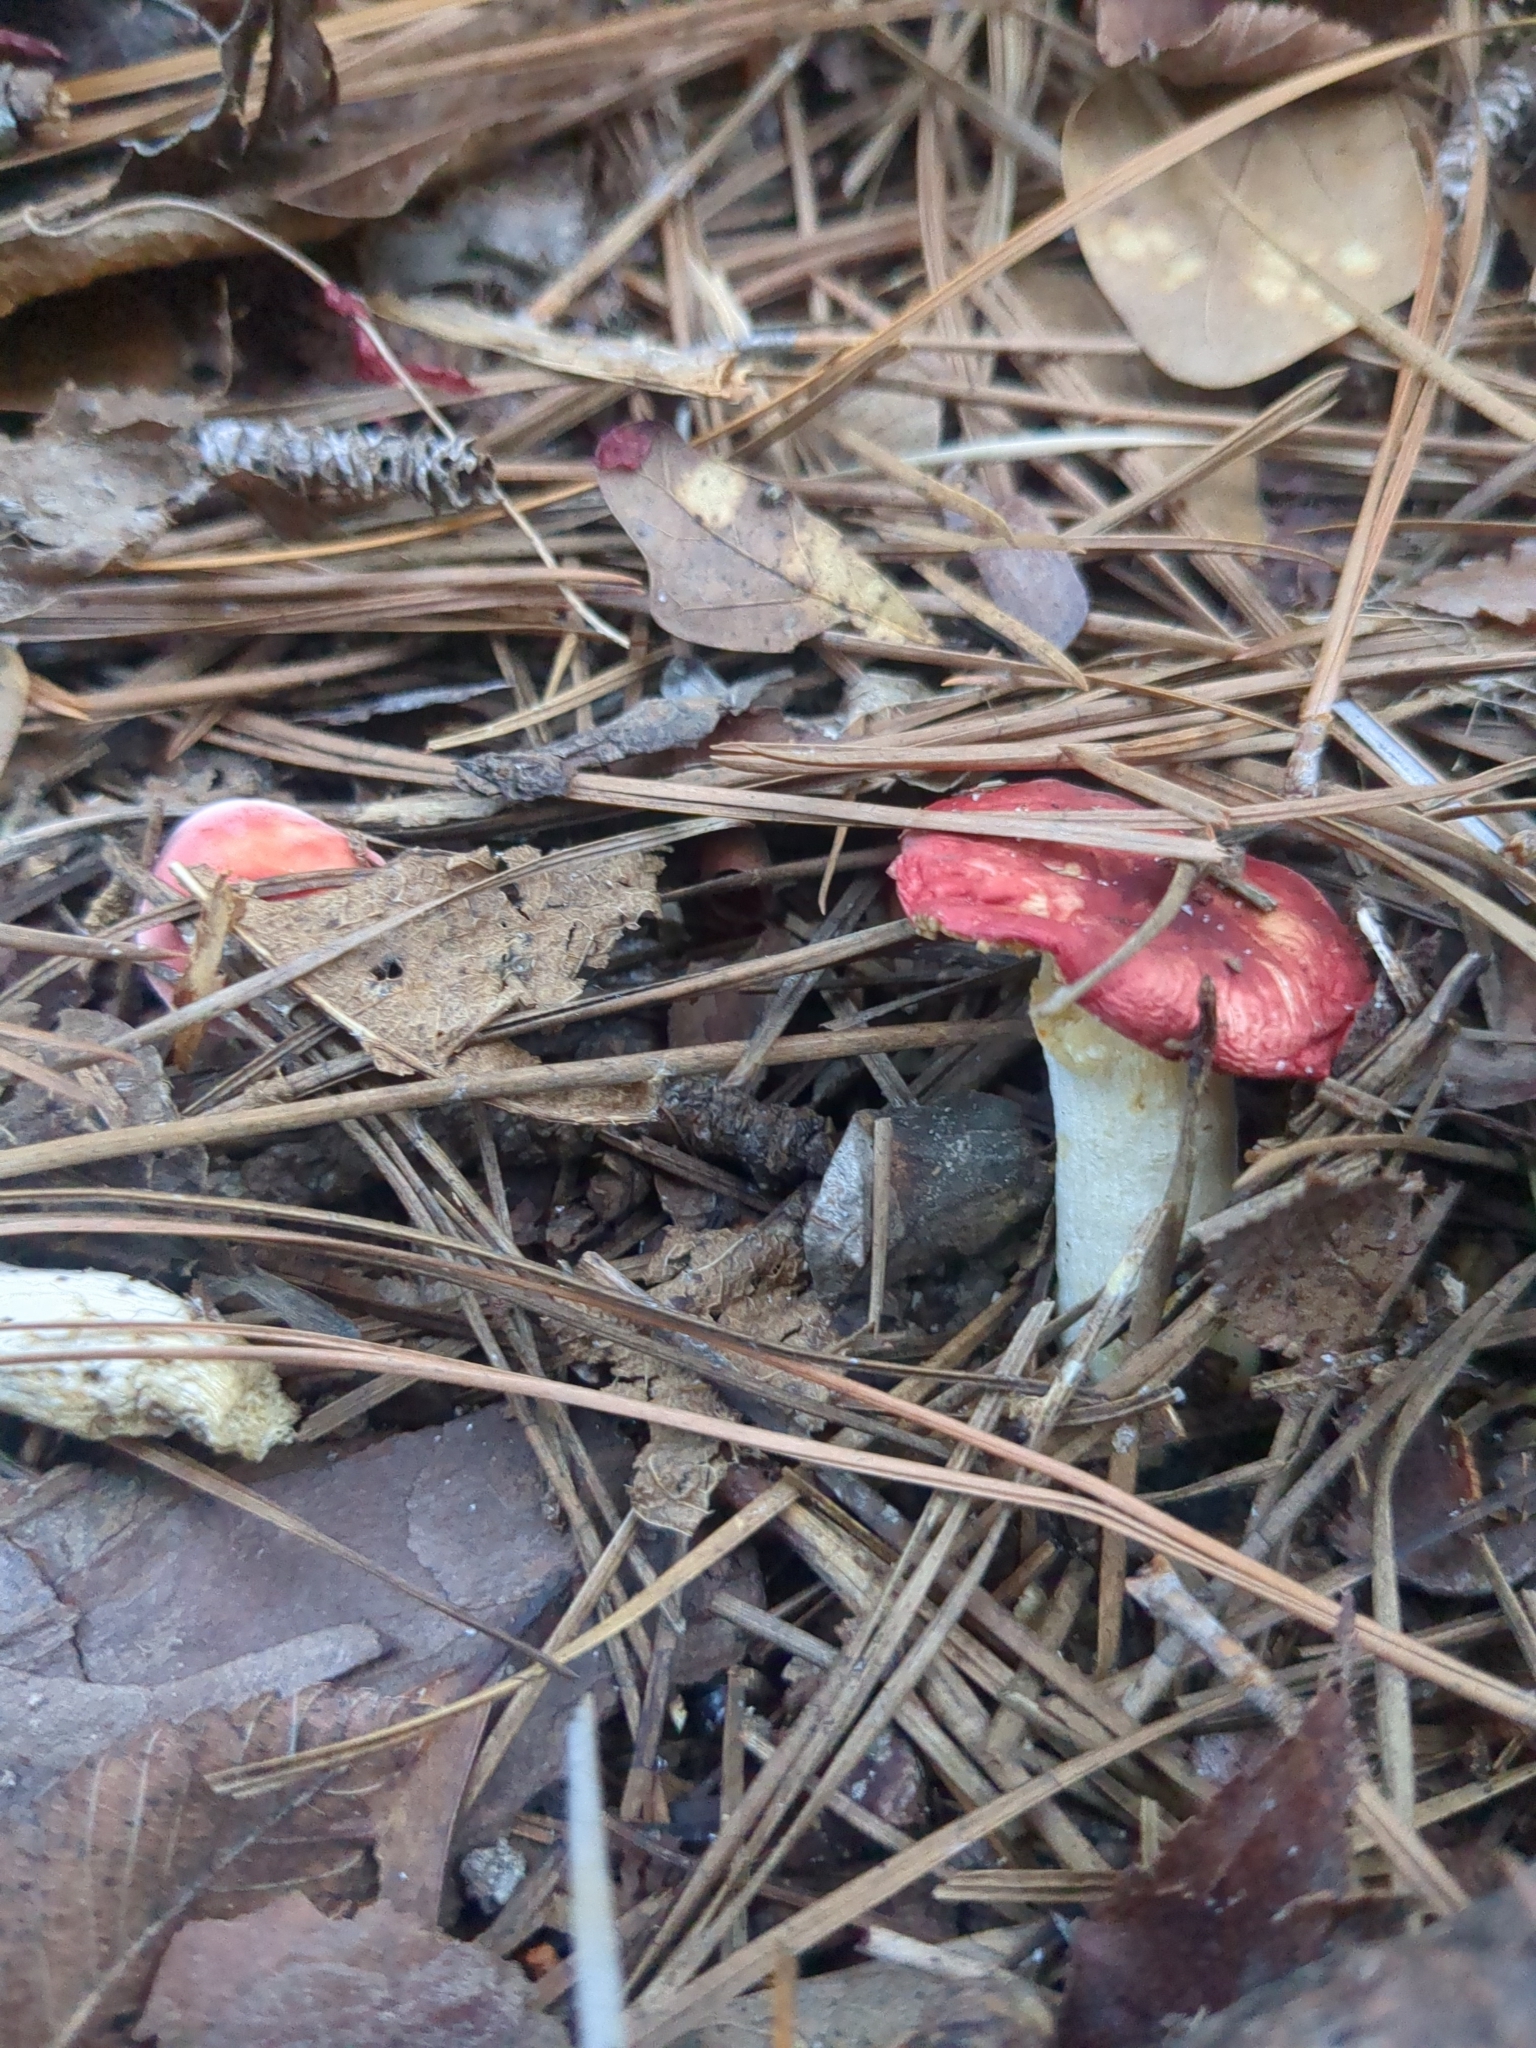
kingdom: Fungi
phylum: Basidiomycota
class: Agaricomycetes
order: Russulales
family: Russulaceae
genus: Russula
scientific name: Russula
